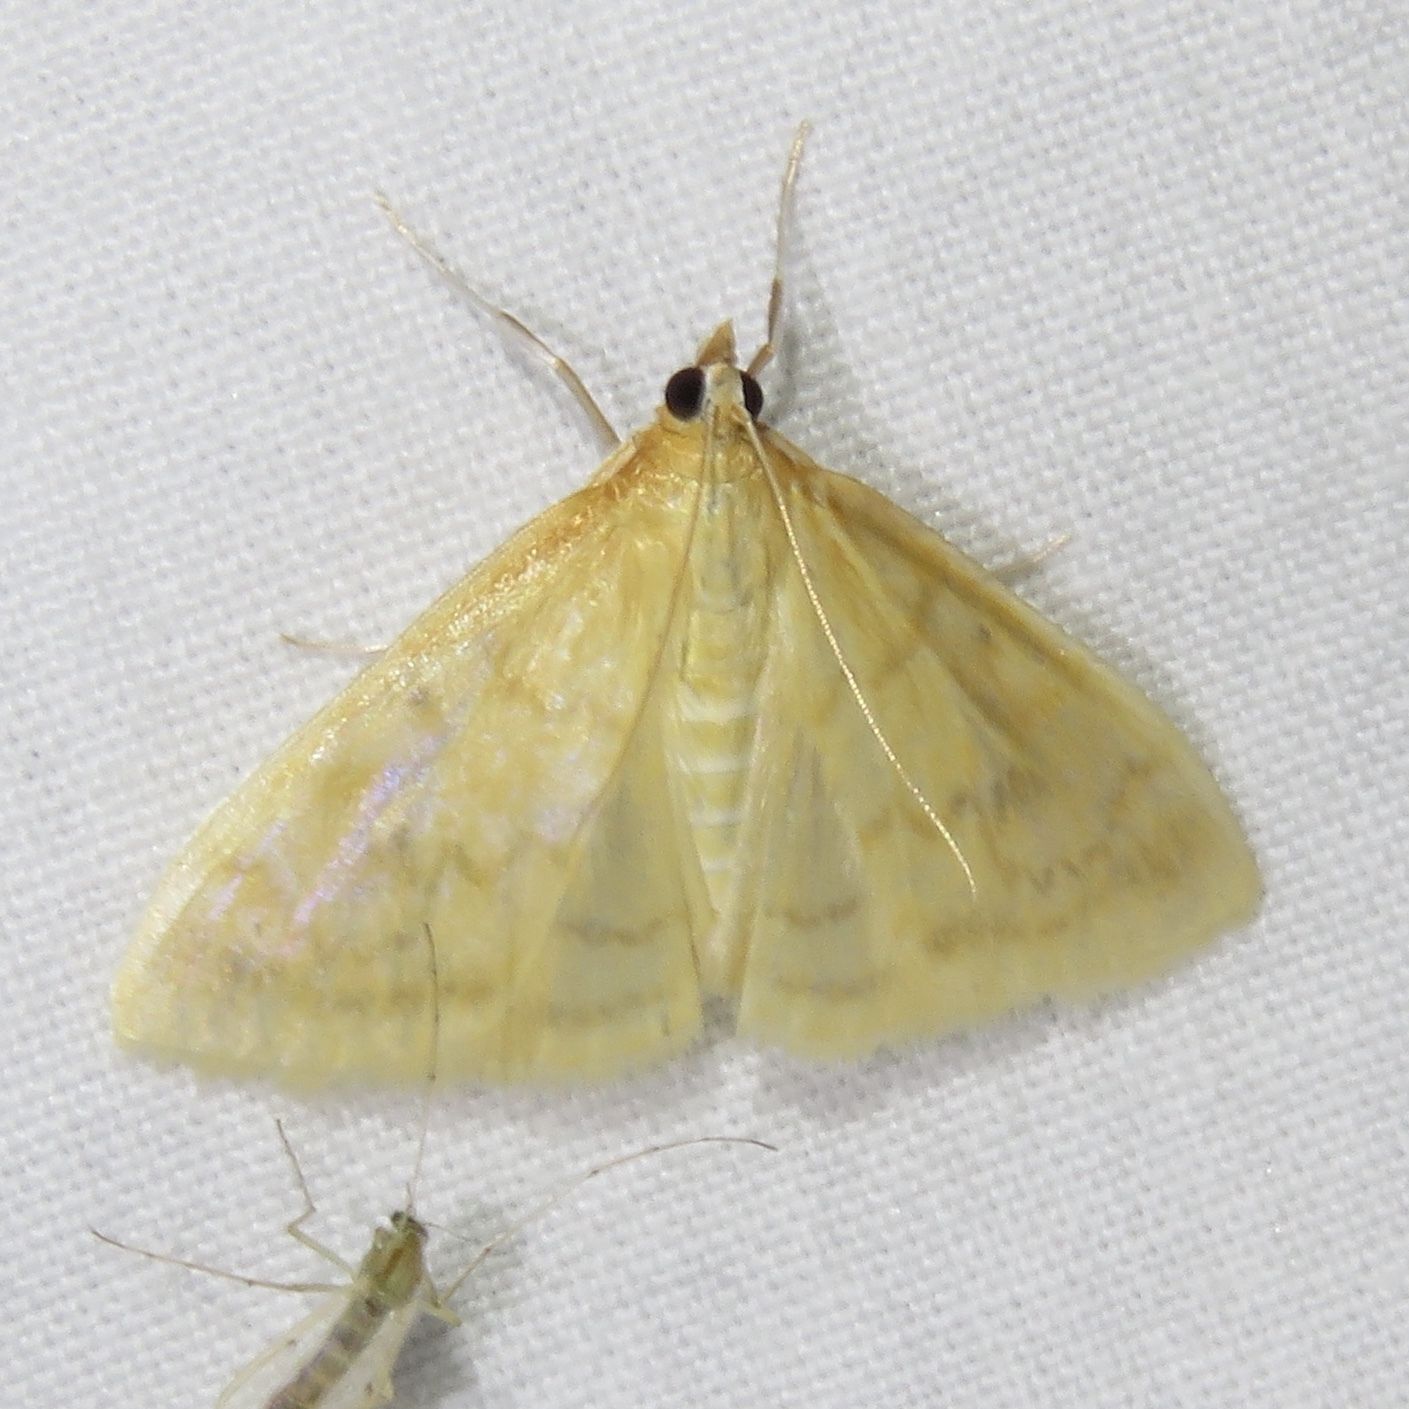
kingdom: Animalia
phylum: Arthropoda
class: Insecta
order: Lepidoptera
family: Crambidae
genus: Crocidophora
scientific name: Crocidophora tuberculalis
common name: Pale-winged crocidiphora moth
